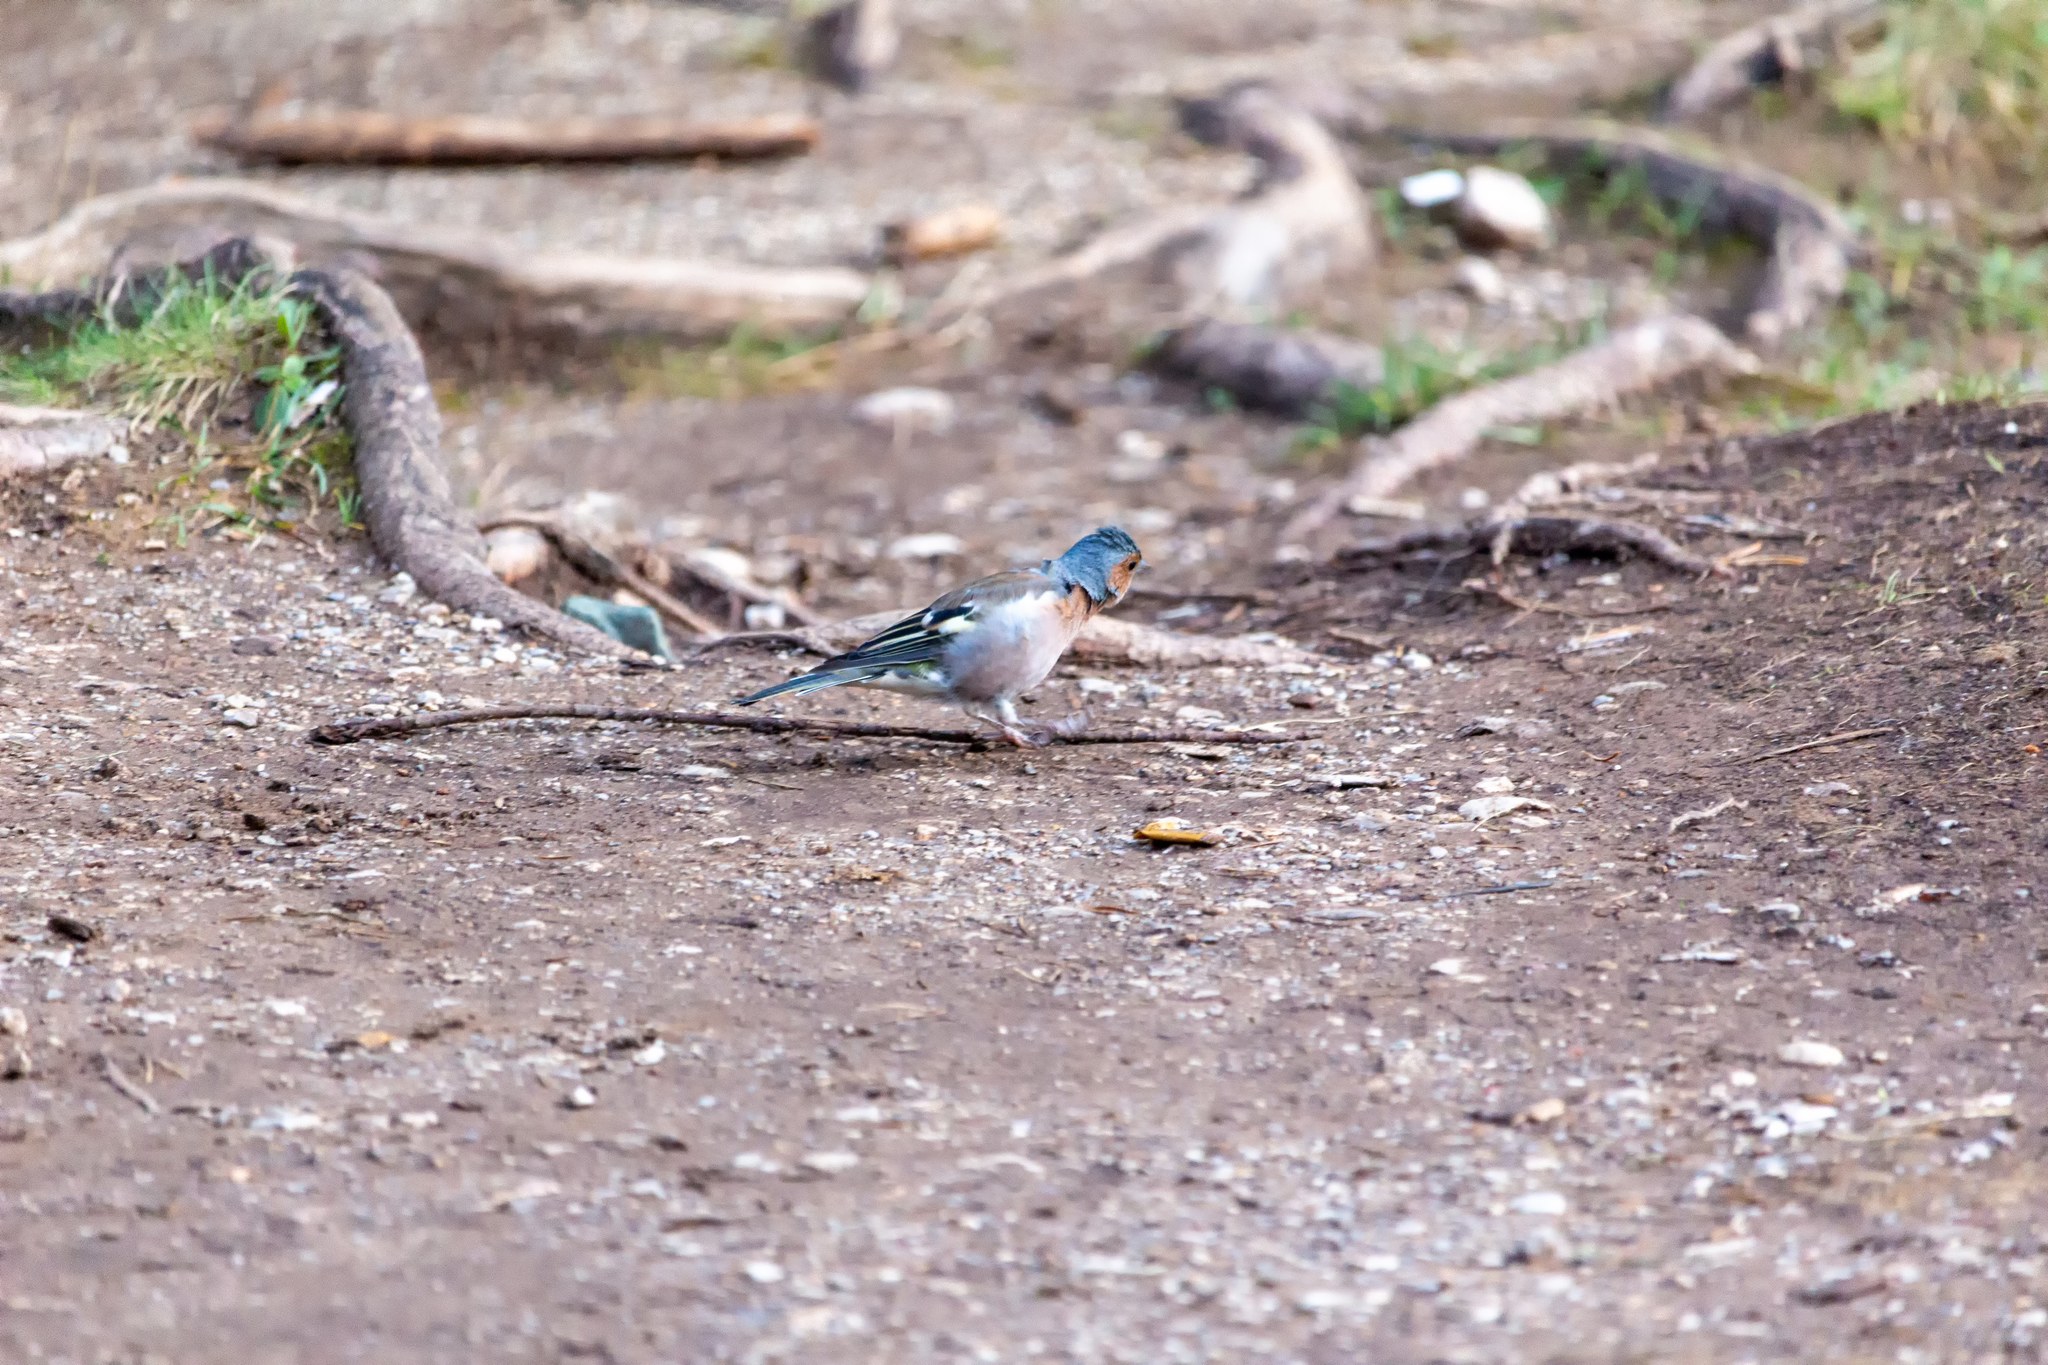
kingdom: Animalia
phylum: Chordata
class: Aves
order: Passeriformes
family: Corvidae
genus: Garrulus
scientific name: Garrulus glandarius
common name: Eurasian jay
